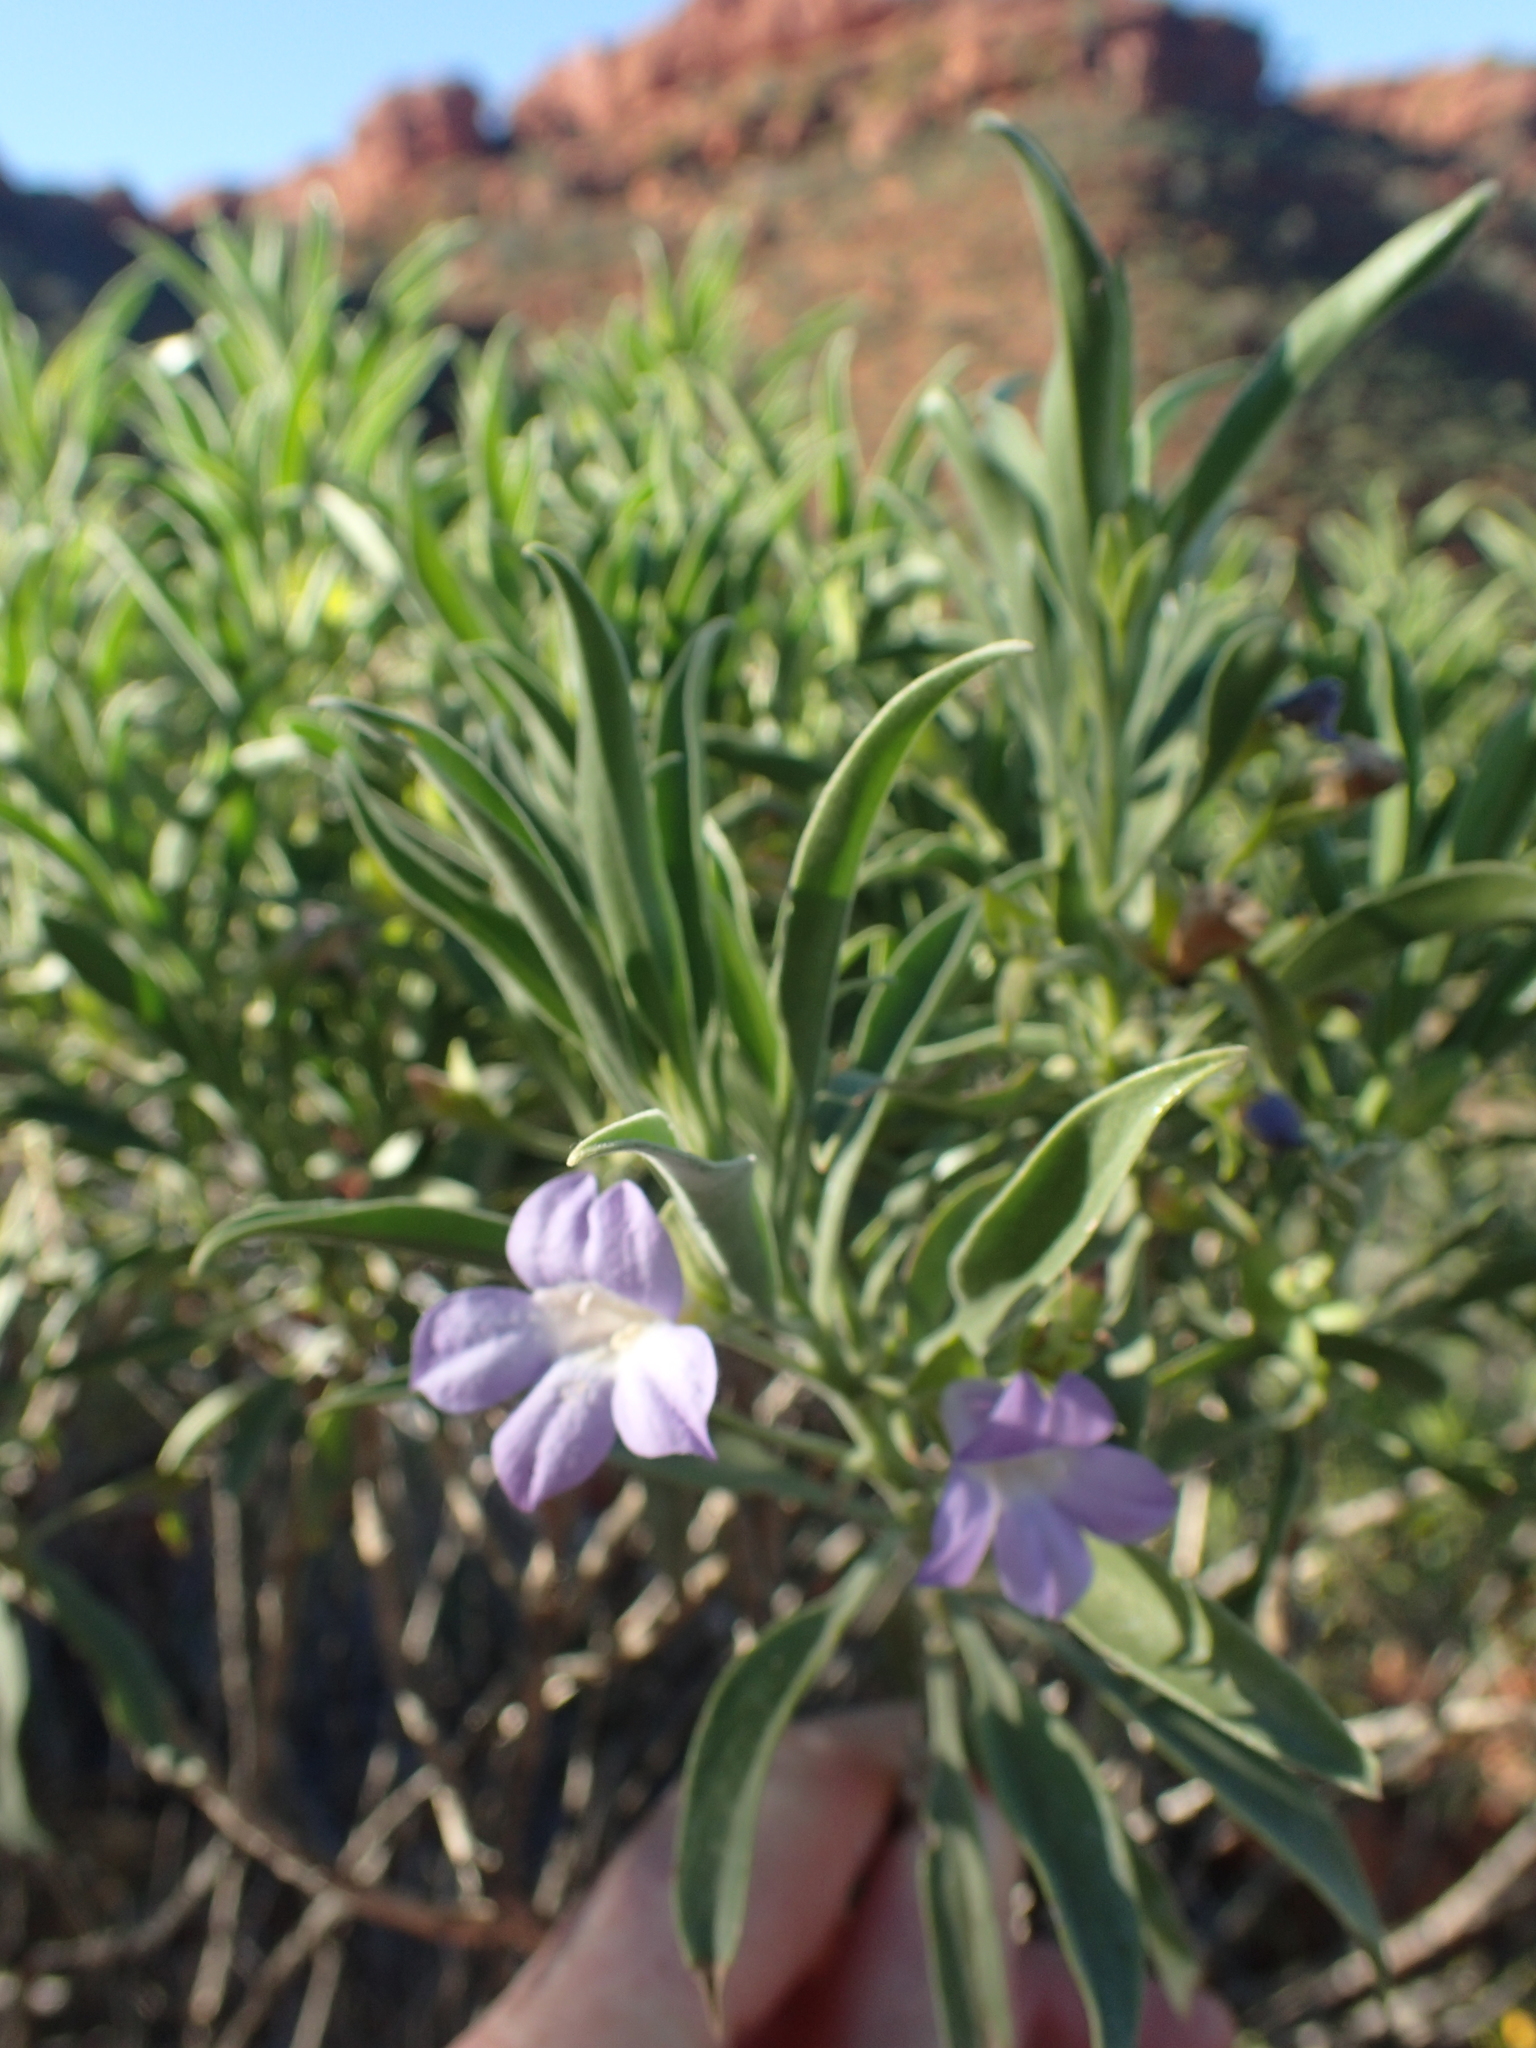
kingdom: Plantae
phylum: Tracheophyta
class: Magnoliopsida
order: Lamiales
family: Scrophulariaceae
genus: Eremophila
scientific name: Eremophila freelingii
